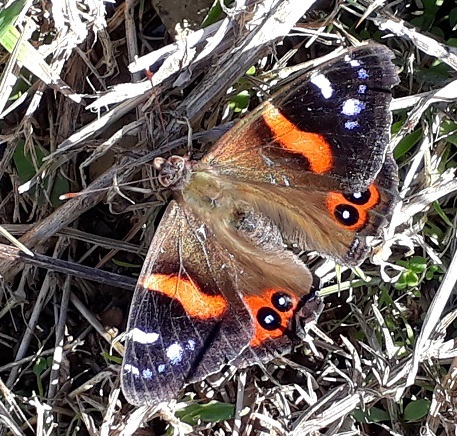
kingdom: Animalia
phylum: Arthropoda
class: Insecta
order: Lepidoptera
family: Nymphalidae
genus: Vanessa
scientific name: Vanessa gonerilla
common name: New zealand red admiral
